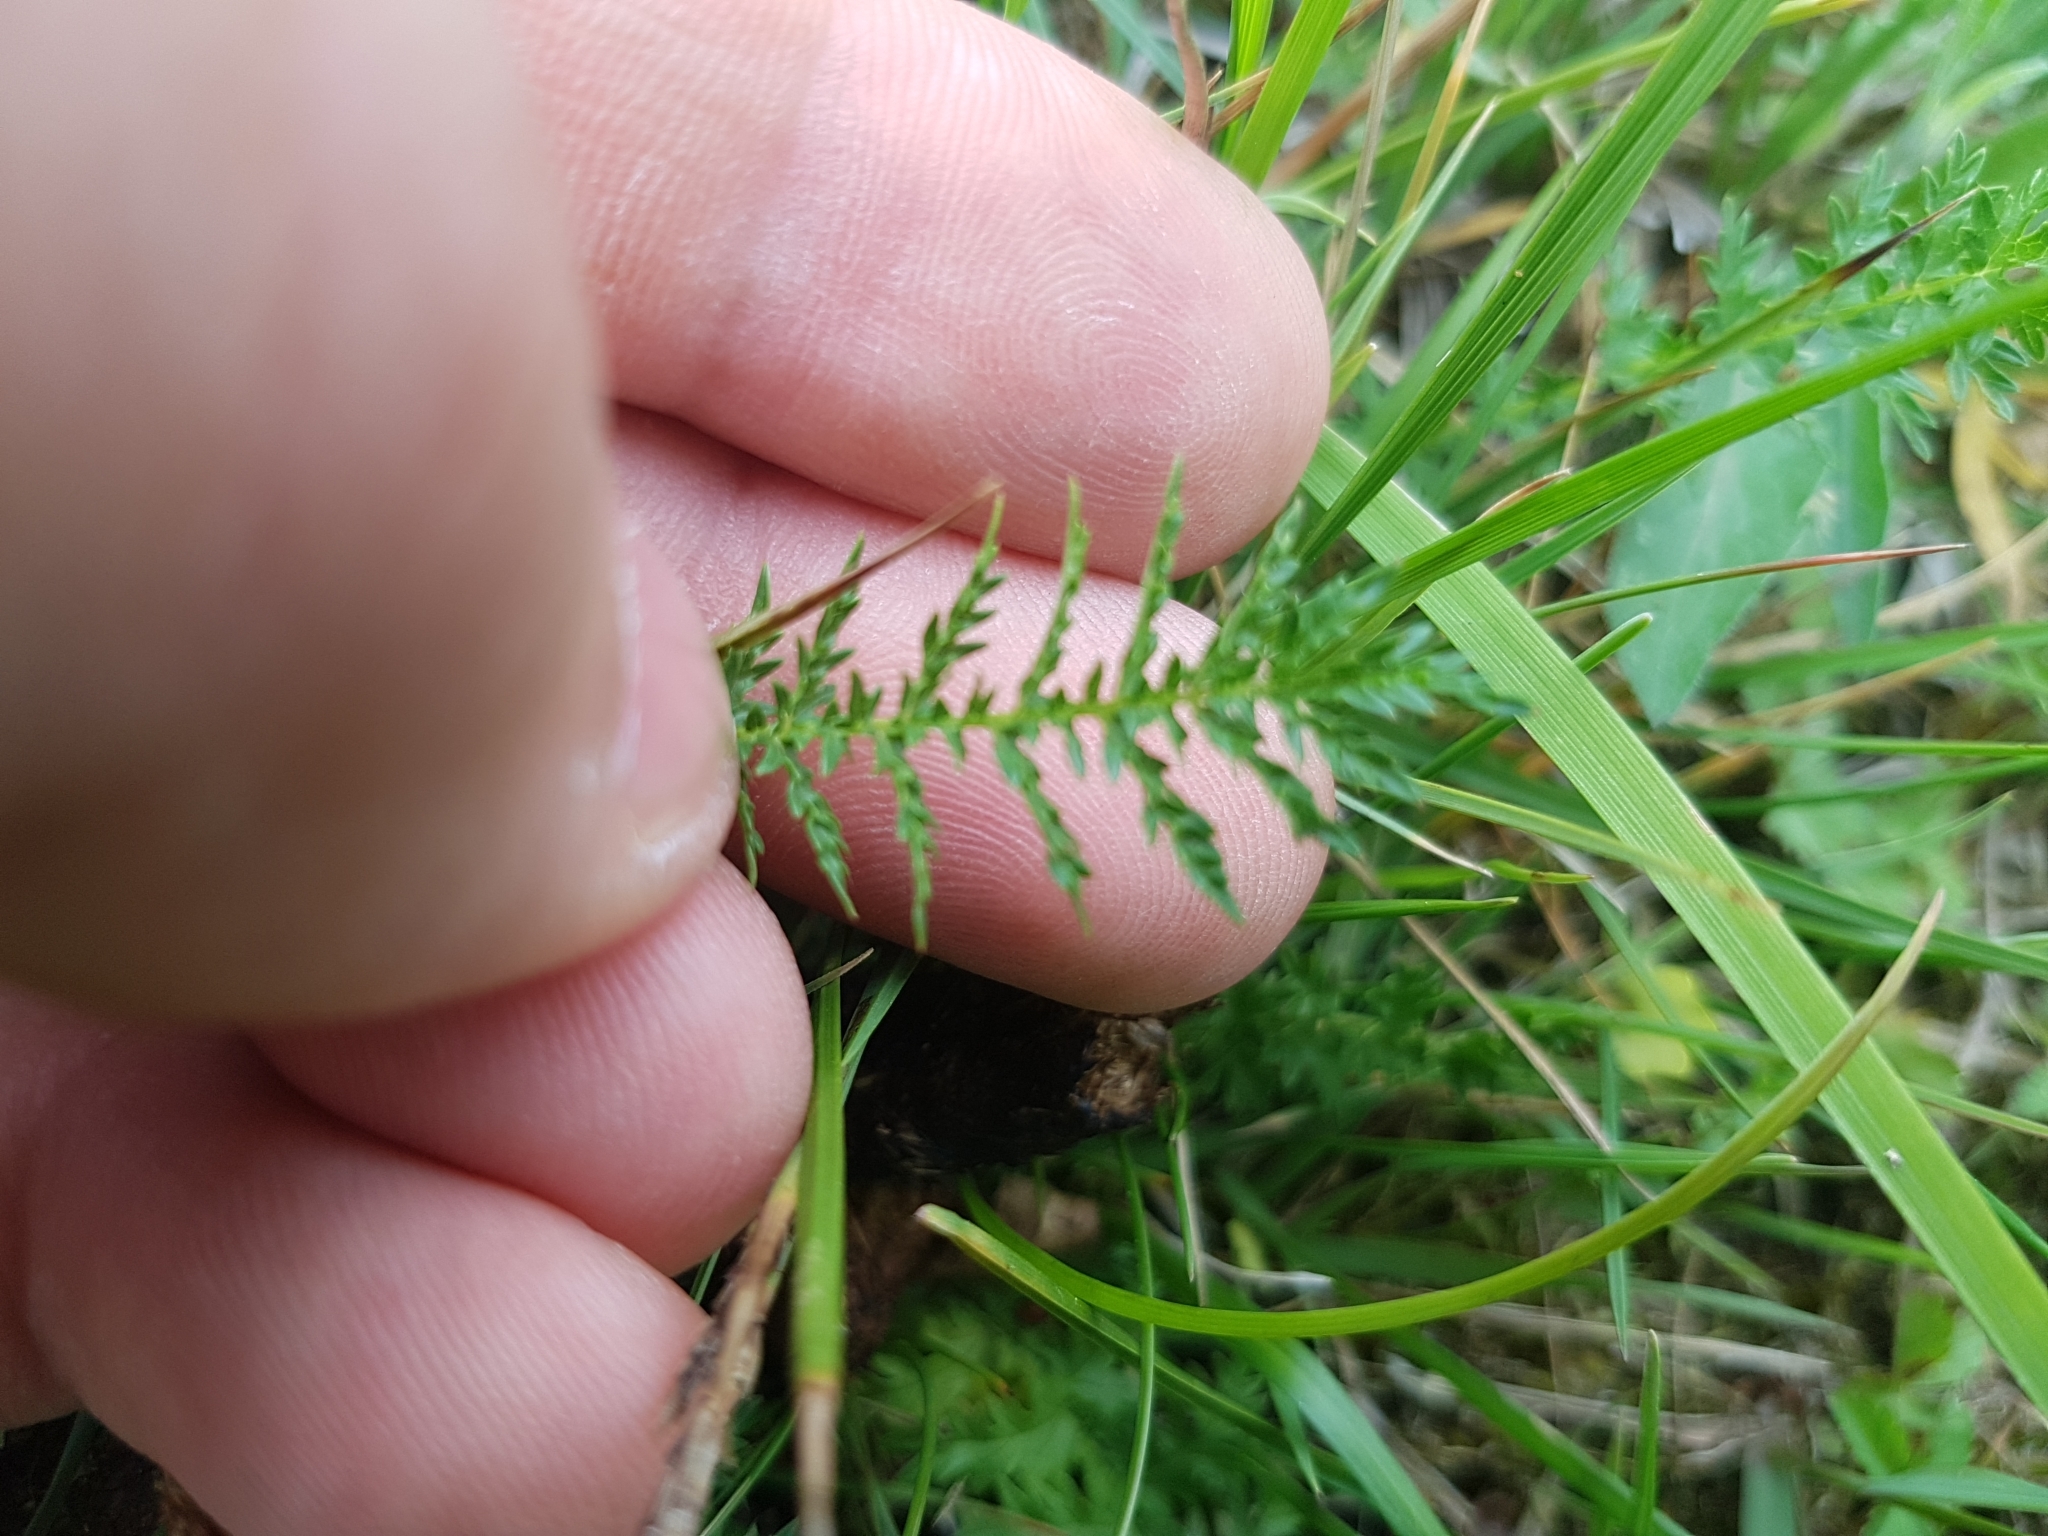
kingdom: Plantae
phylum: Tracheophyta
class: Magnoliopsida
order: Rosales
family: Rosaceae
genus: Filipendula
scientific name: Filipendula vulgaris
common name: Dropwort
